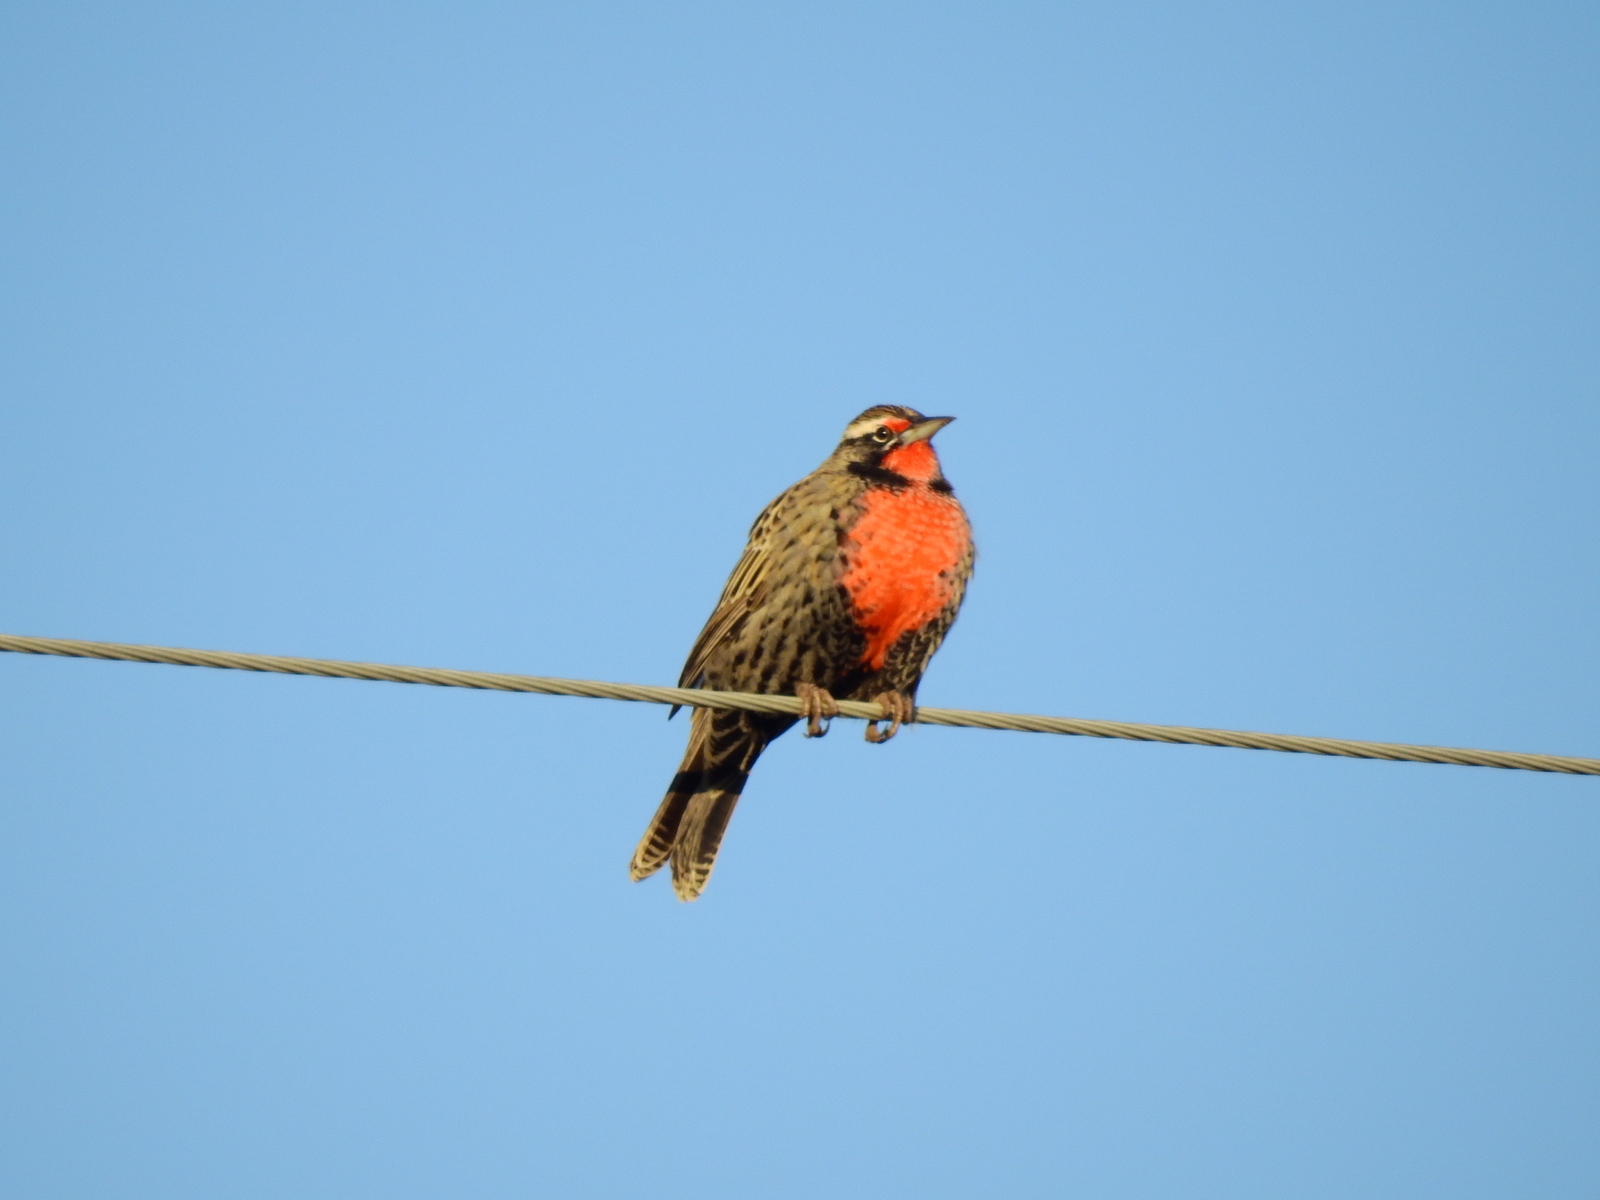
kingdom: Animalia
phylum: Chordata
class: Aves
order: Passeriformes
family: Icteridae
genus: Sturnella
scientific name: Sturnella loyca
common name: Long-tailed meadowlark
